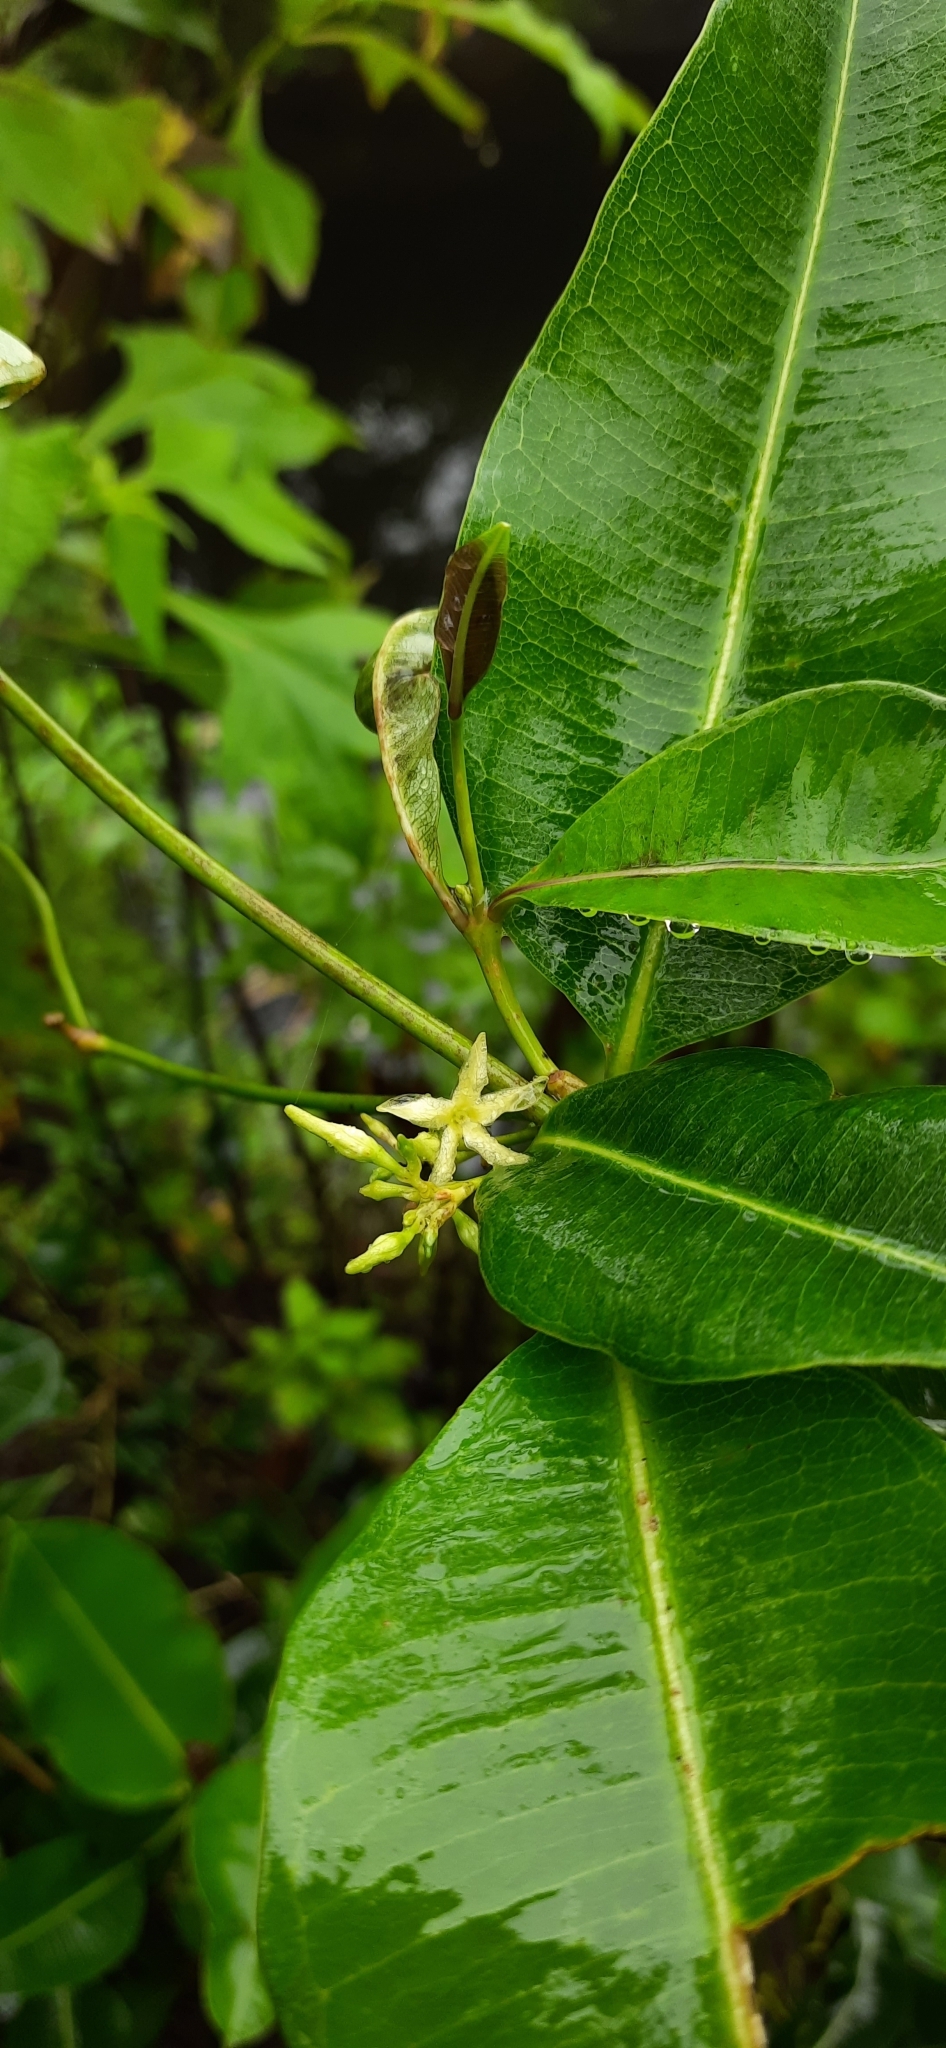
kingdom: Plantae
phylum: Tracheophyta
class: Magnoliopsida
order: Gentianales
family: Apocynaceae
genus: Cryptolepis
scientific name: Cryptolepis buchananii
